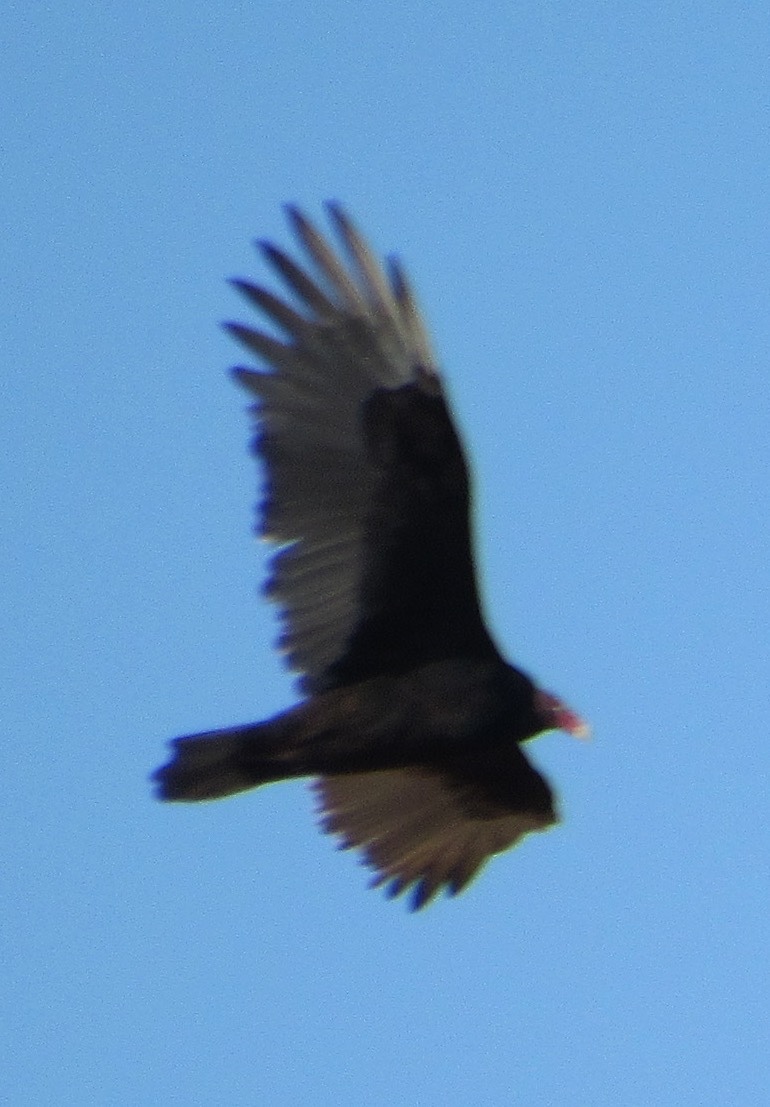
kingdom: Animalia
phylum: Chordata
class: Aves
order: Accipitriformes
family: Cathartidae
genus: Cathartes
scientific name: Cathartes aura
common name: Turkey vulture
